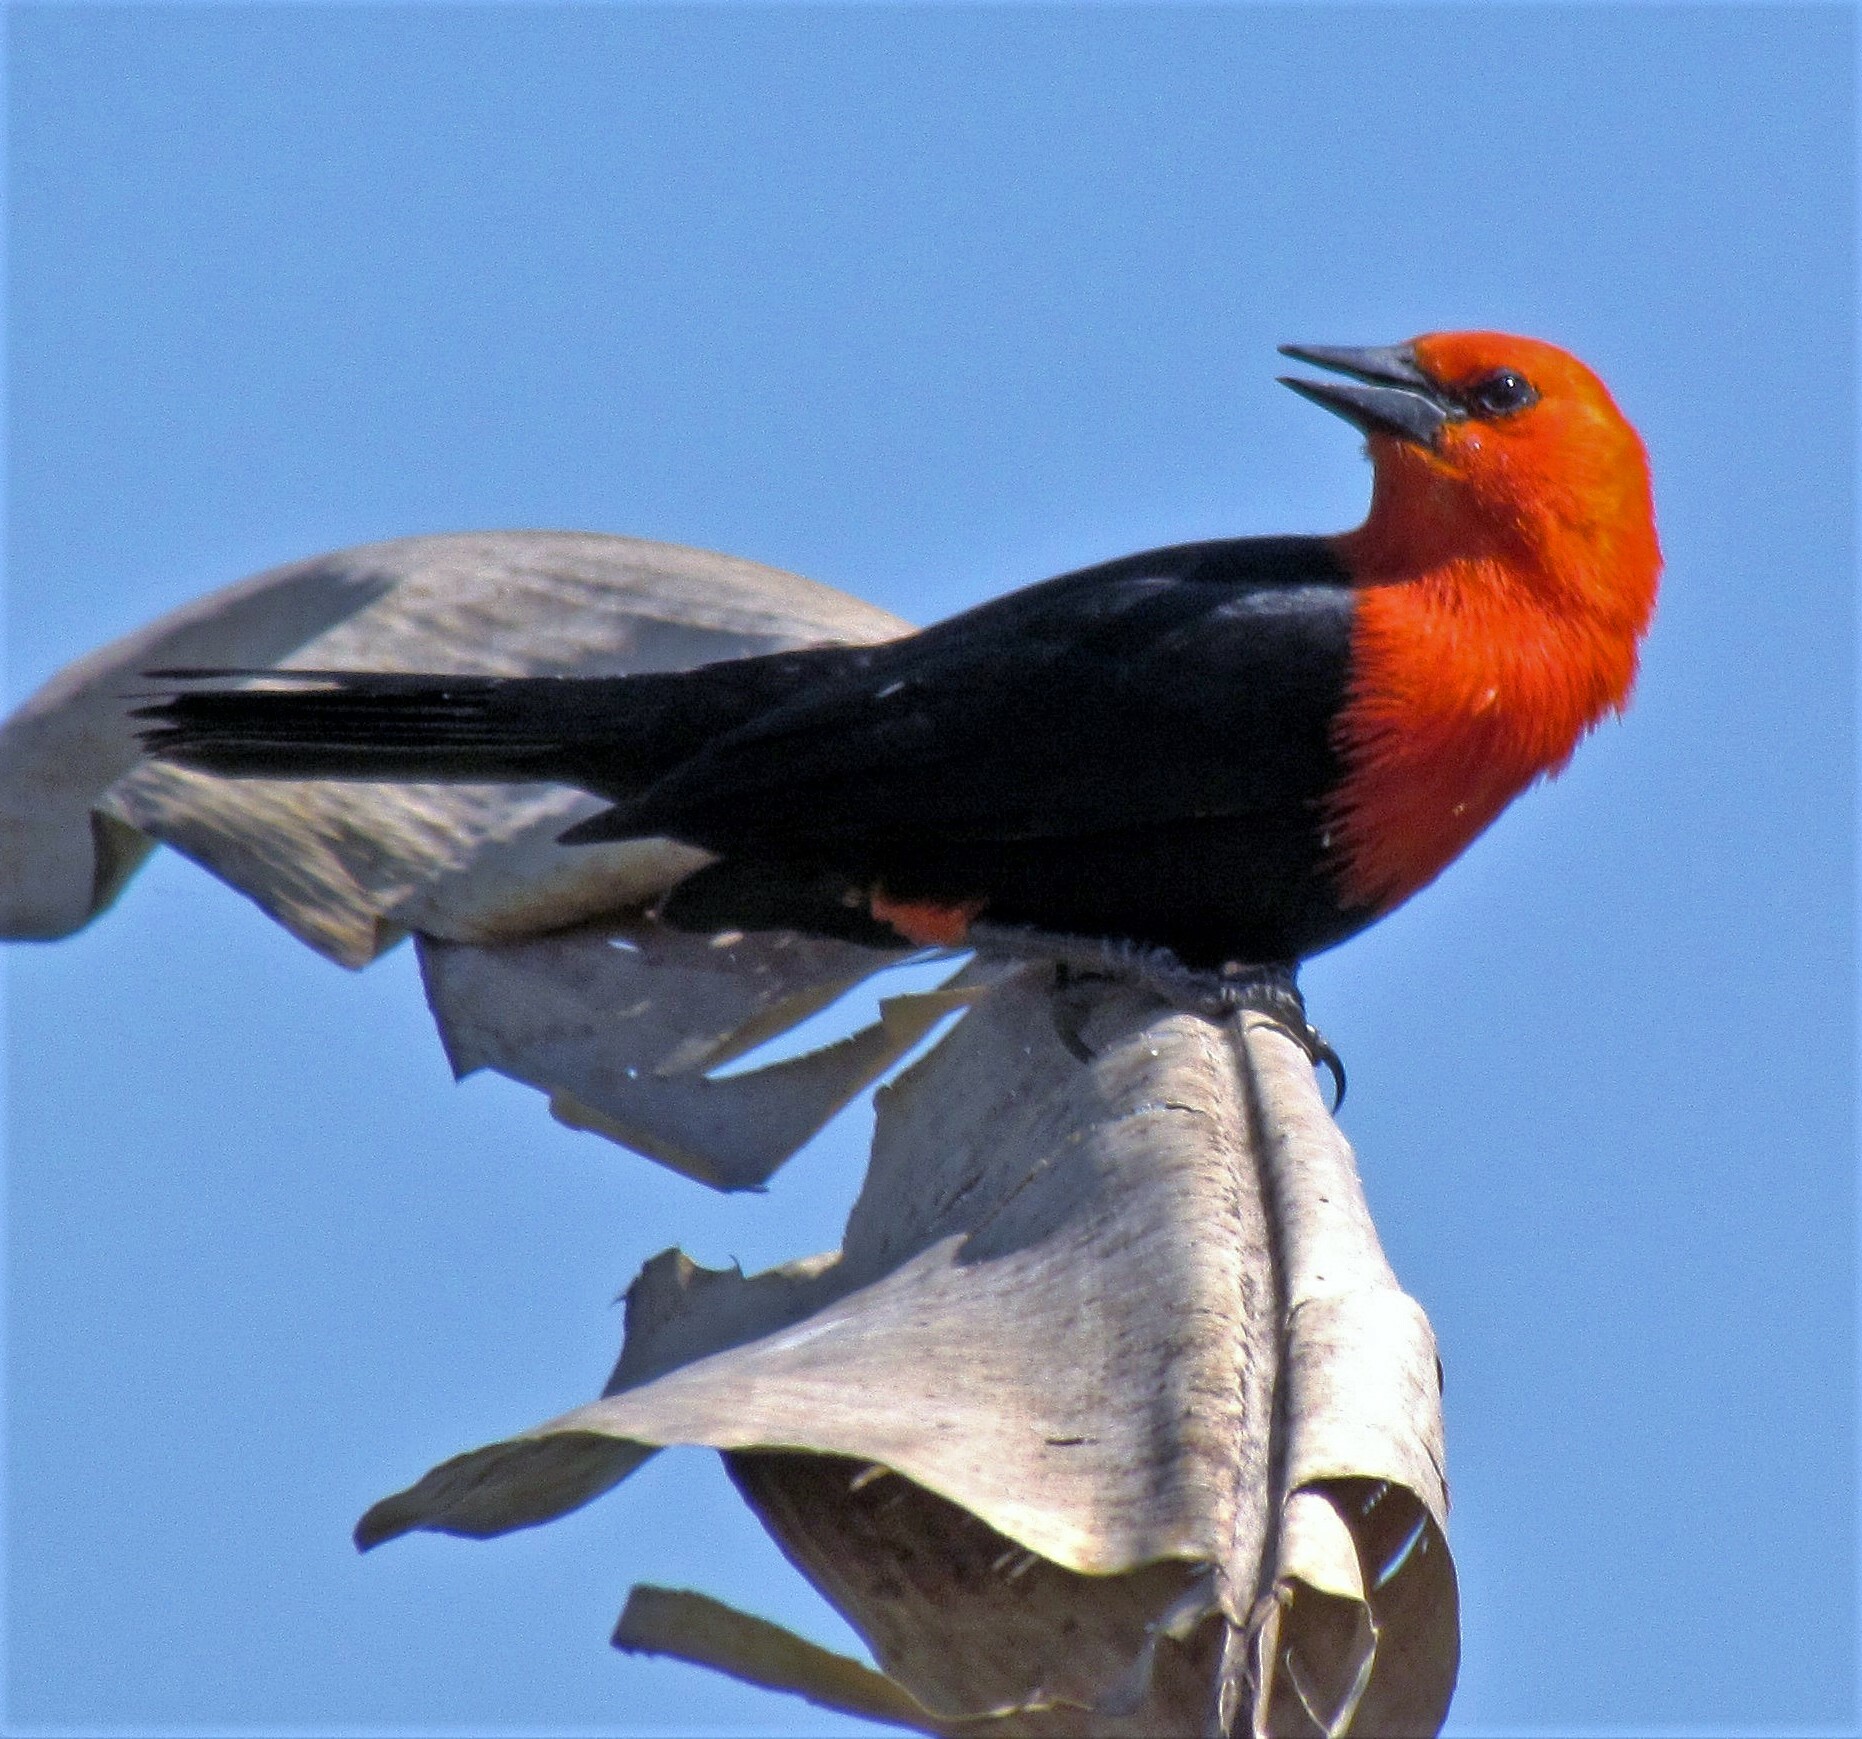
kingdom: Animalia
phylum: Chordata
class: Aves
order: Passeriformes
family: Icteridae
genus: Amblyramphus
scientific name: Amblyramphus holosericeus
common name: Scarlet-headed blackbird
